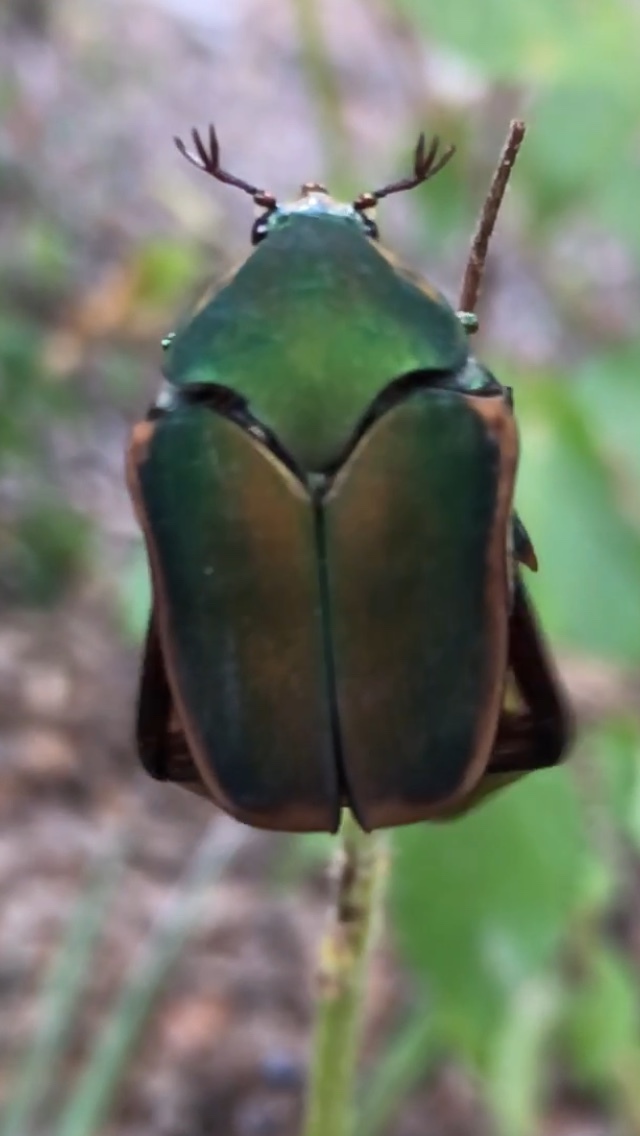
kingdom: Animalia
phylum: Arthropoda
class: Insecta
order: Coleoptera
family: Scarabaeidae
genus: Cotinis
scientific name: Cotinis nitida
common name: Common green june beetle
